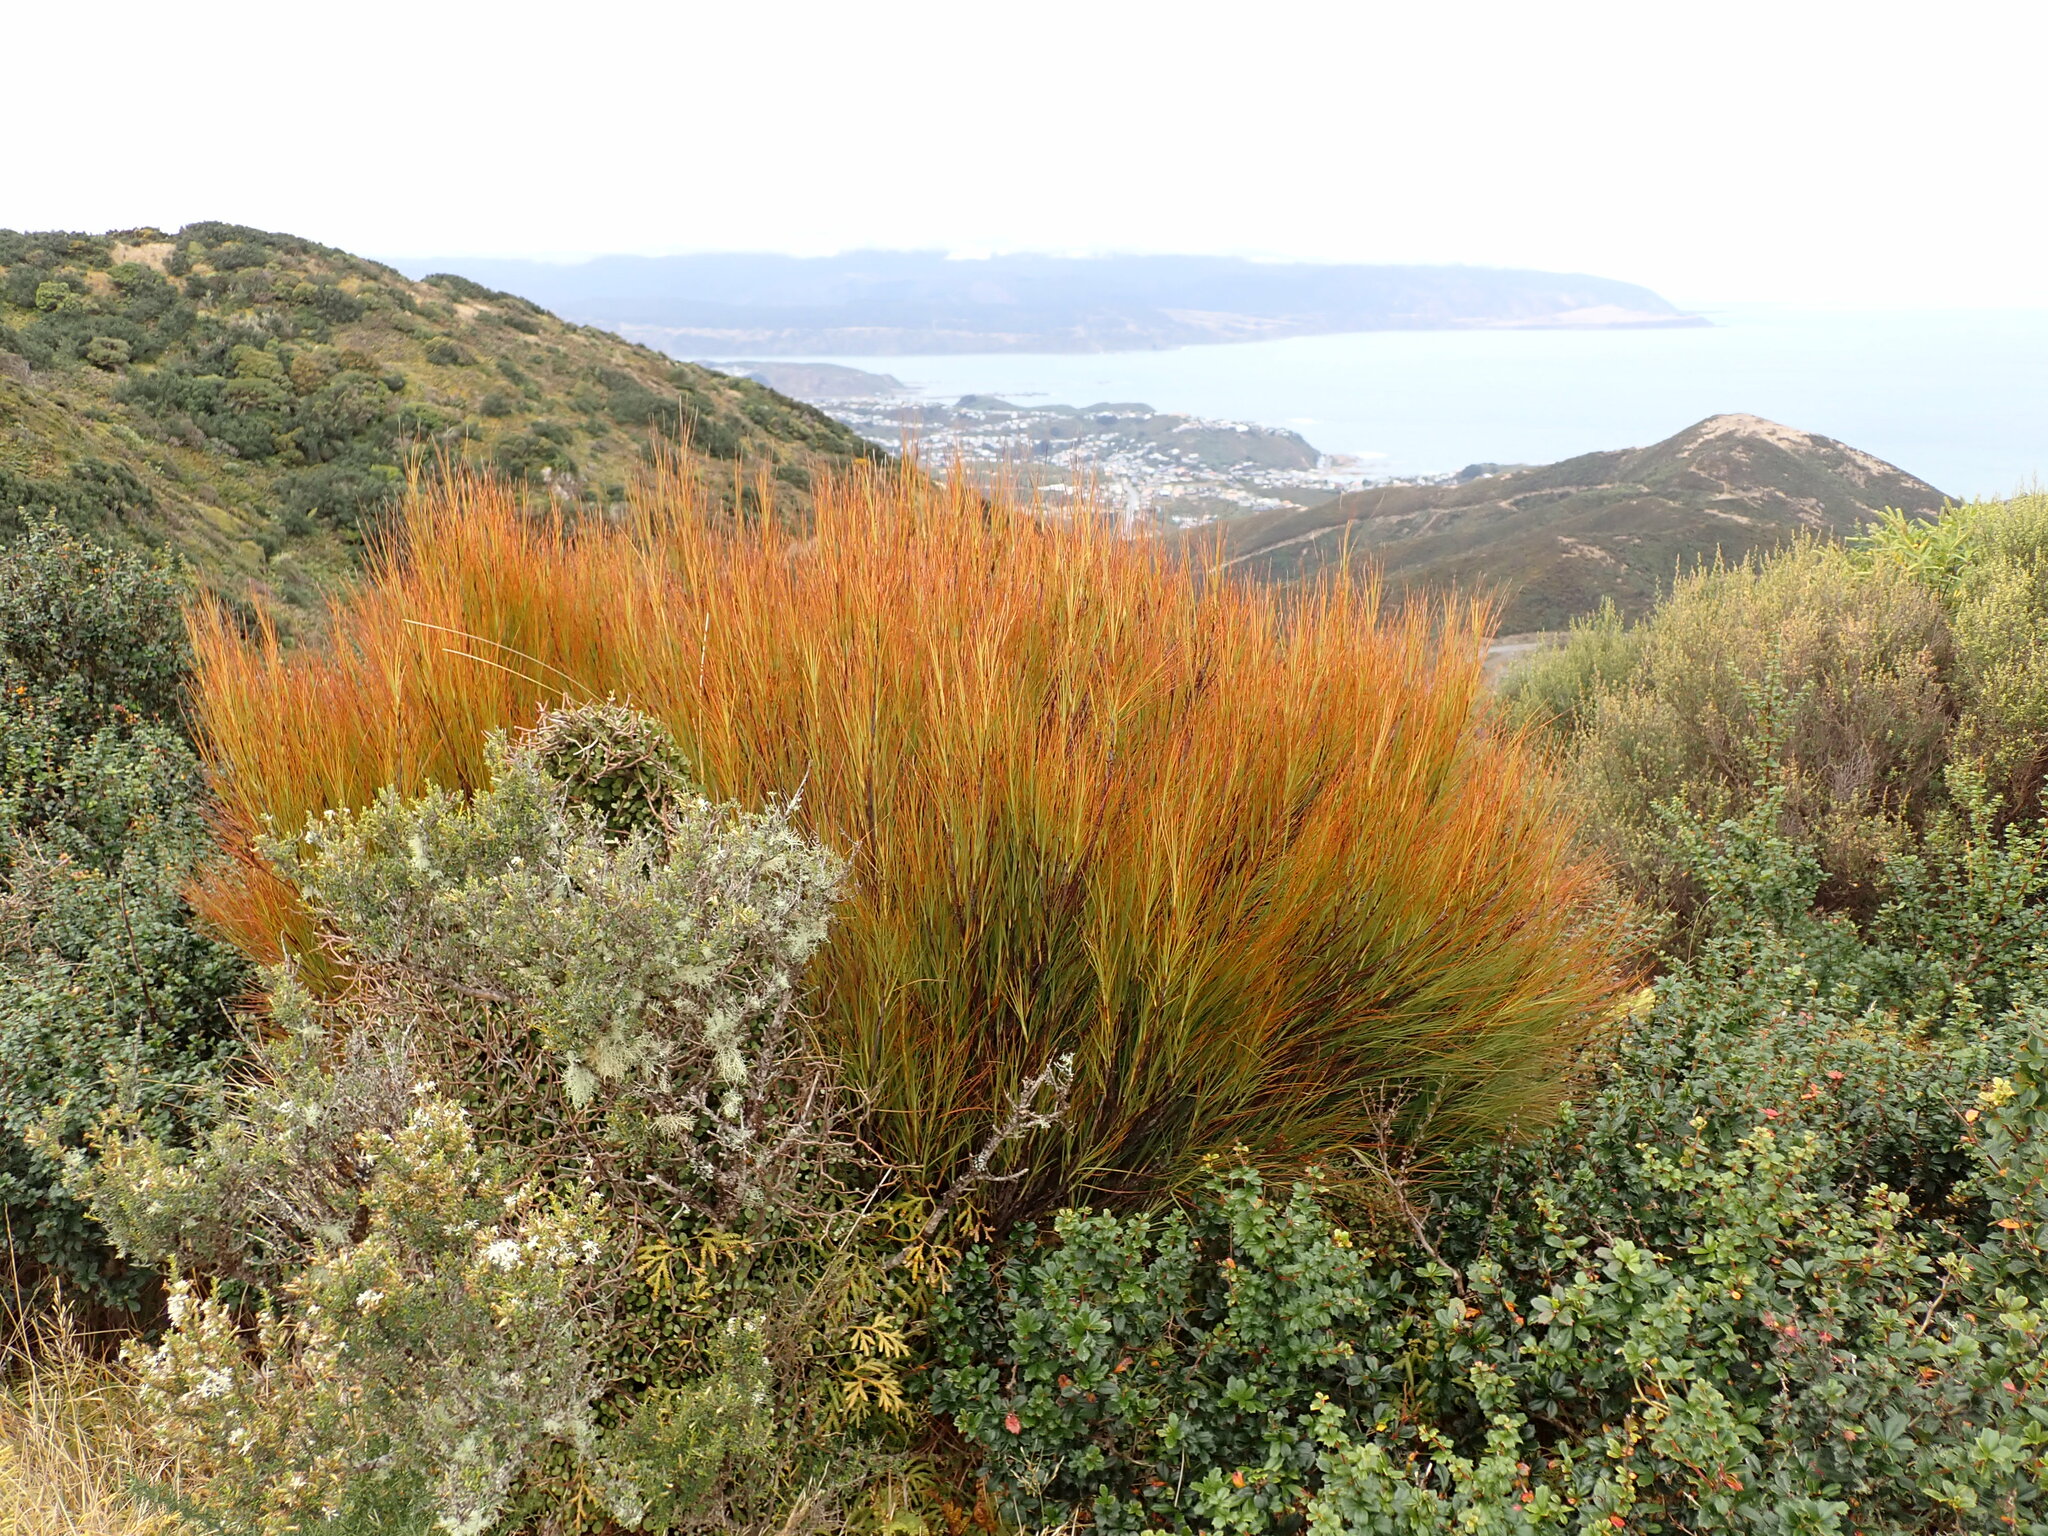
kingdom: Plantae
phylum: Tracheophyta
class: Magnoliopsida
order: Ericales
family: Ericaceae
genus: Dracophyllum
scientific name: Dracophyllum filifolium
